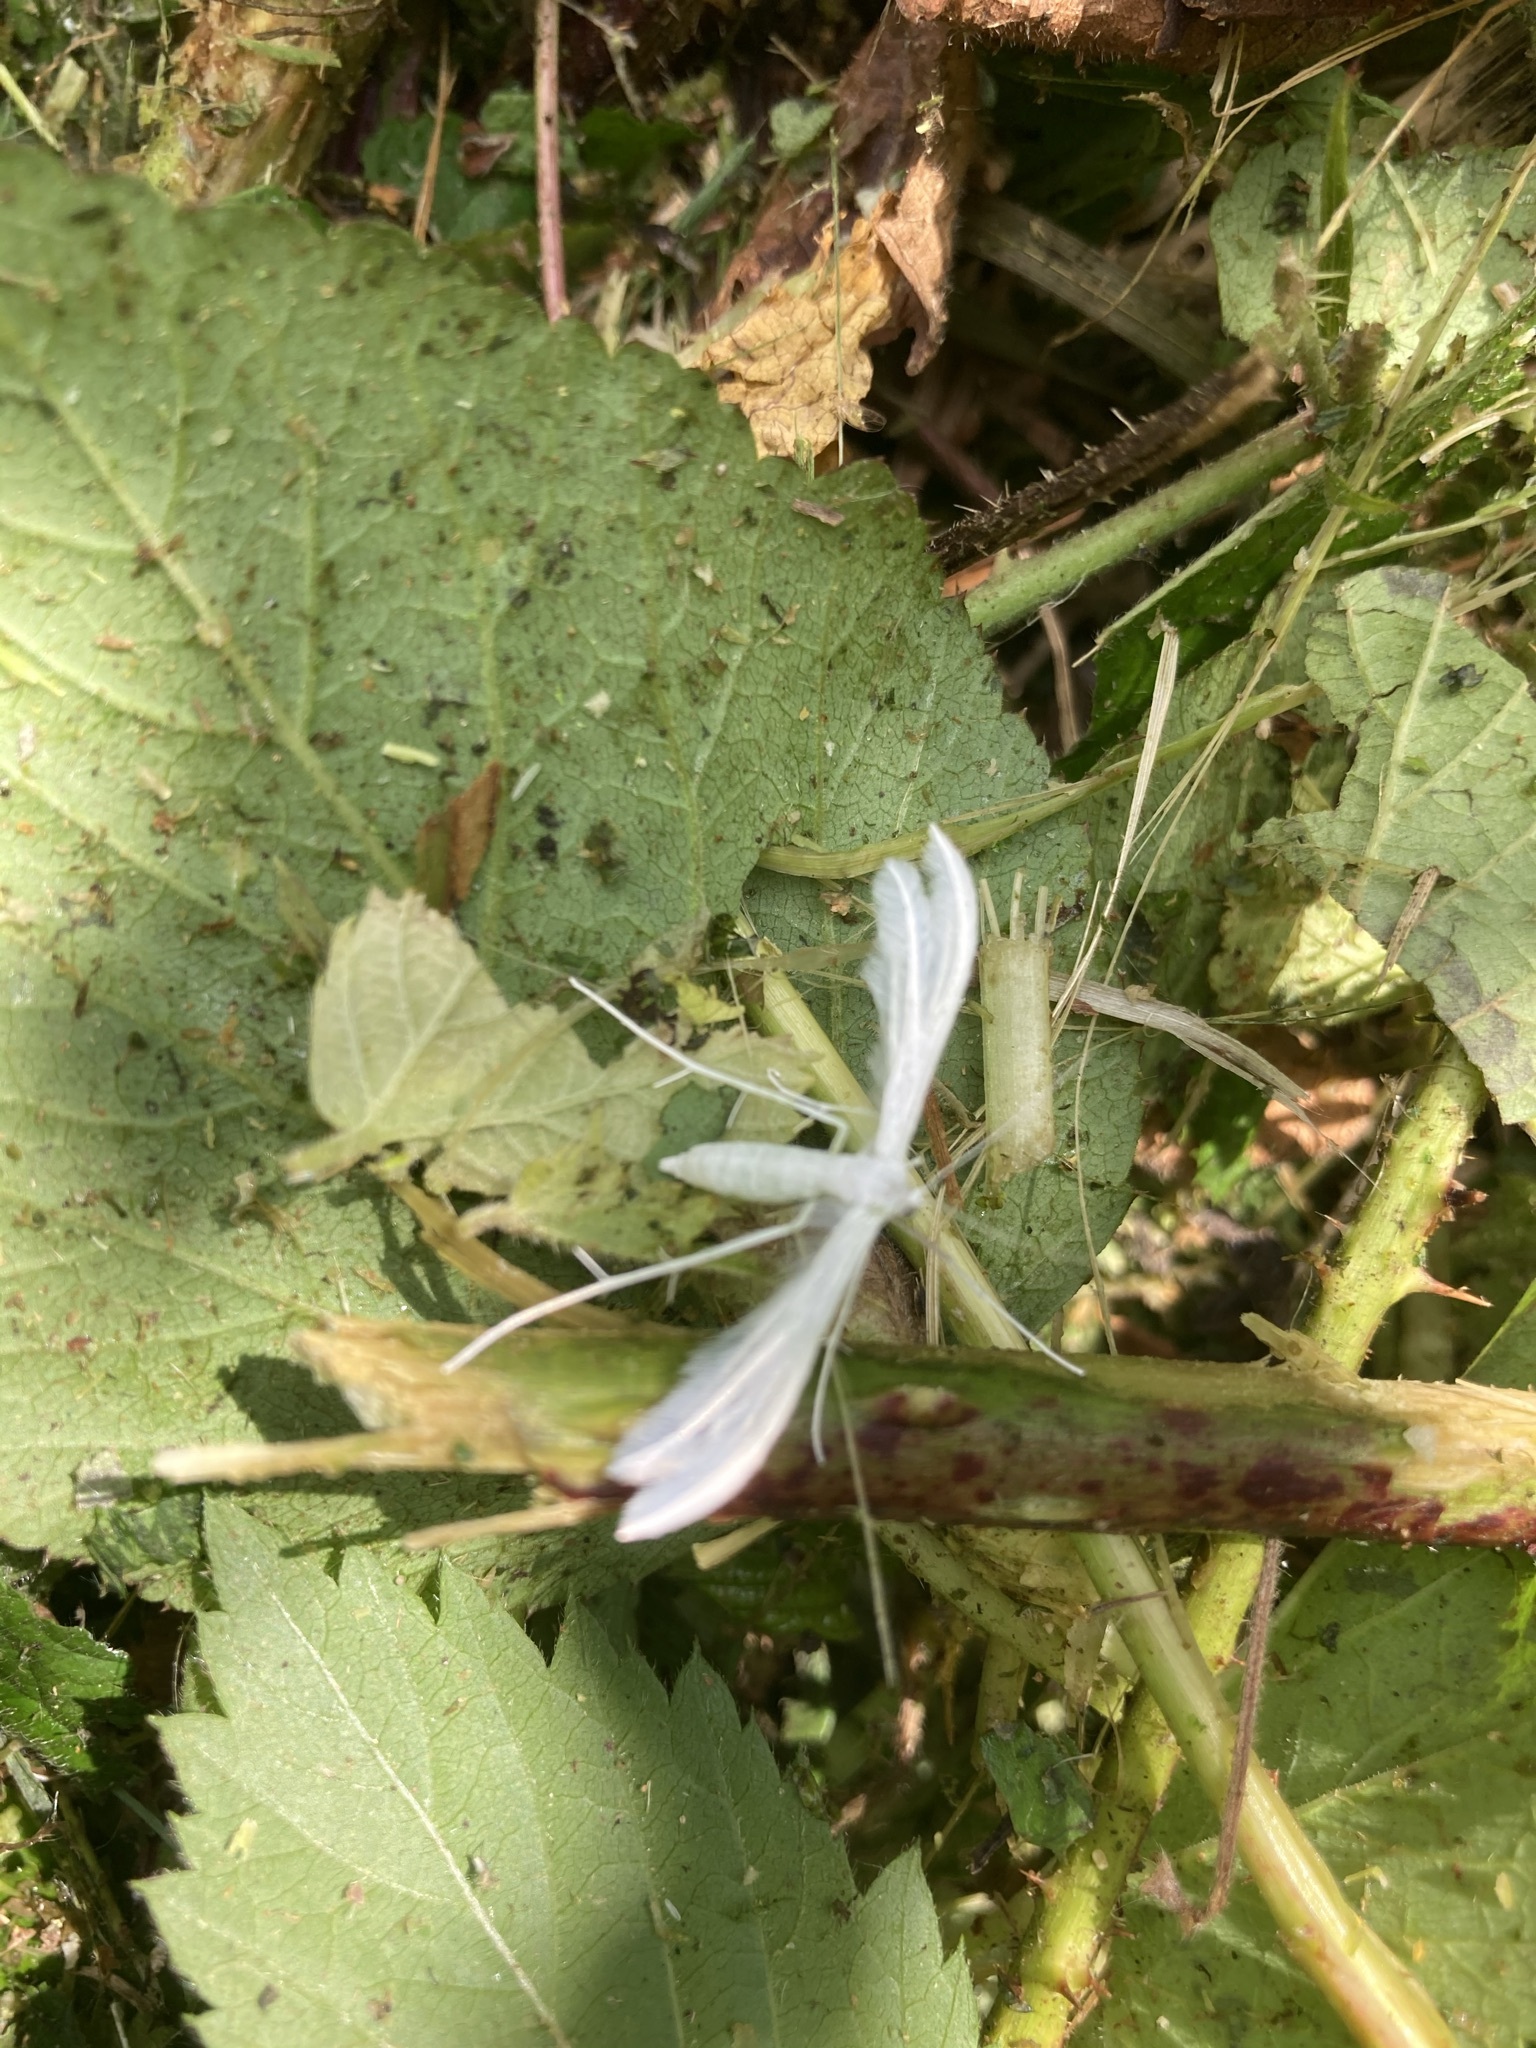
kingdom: Animalia
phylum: Arthropoda
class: Insecta
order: Lepidoptera
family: Pterophoridae
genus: Pterophorus
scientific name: Pterophorus pentadactyla
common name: White plume moth
